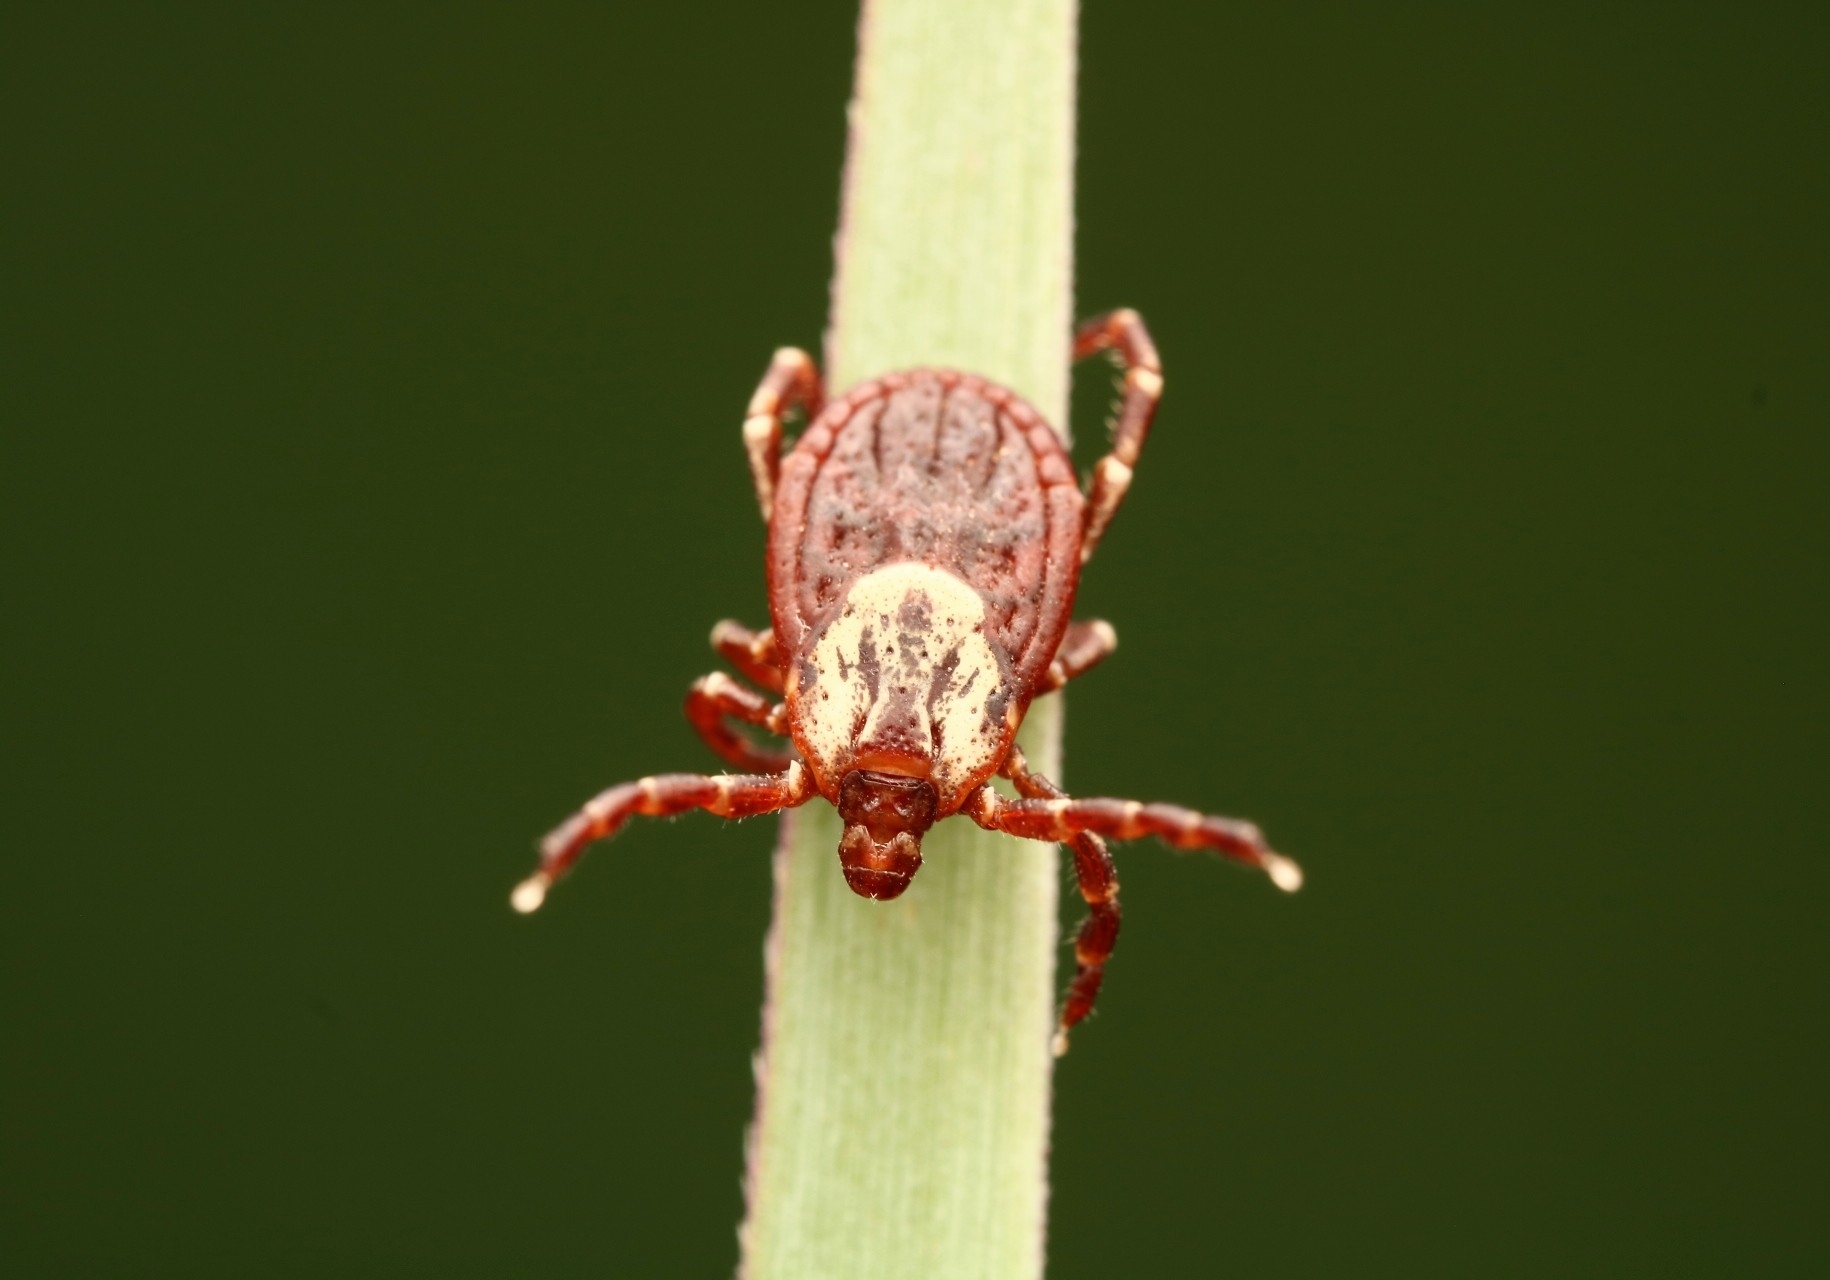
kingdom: Animalia
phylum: Arthropoda
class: Arachnida
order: Ixodida
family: Ixodidae
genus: Dermacentor
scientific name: Dermacentor variabilis
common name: American dog tick
